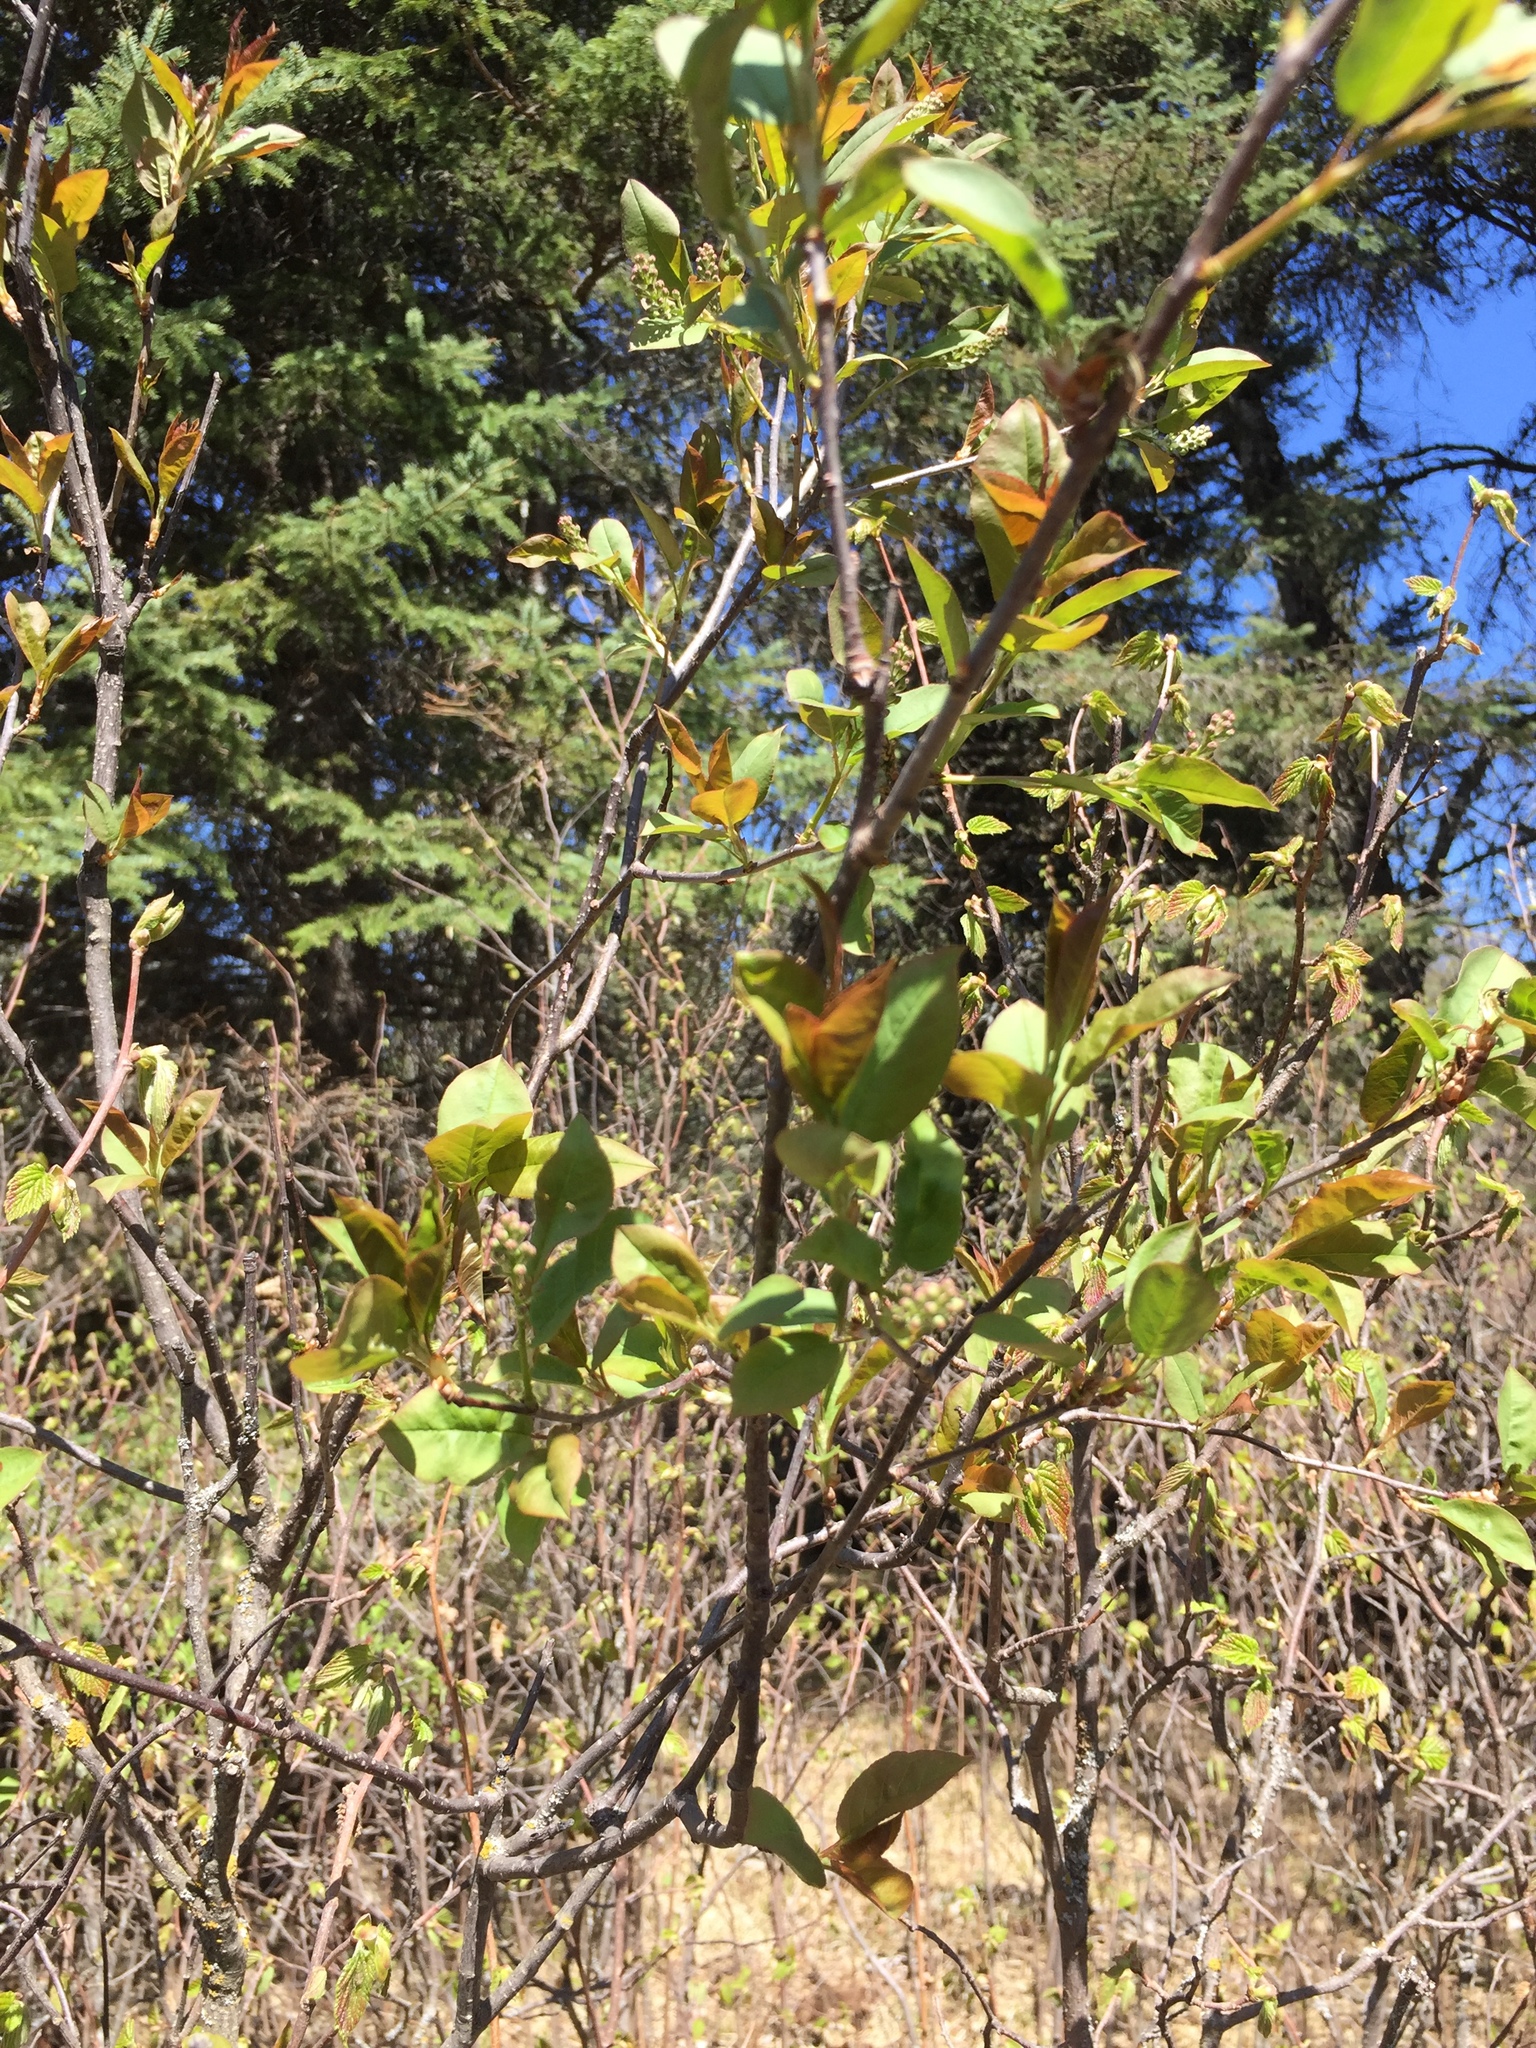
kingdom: Plantae
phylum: Tracheophyta
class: Magnoliopsida
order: Rosales
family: Rosaceae
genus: Prunus
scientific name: Prunus virginiana
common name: Chokecherry
